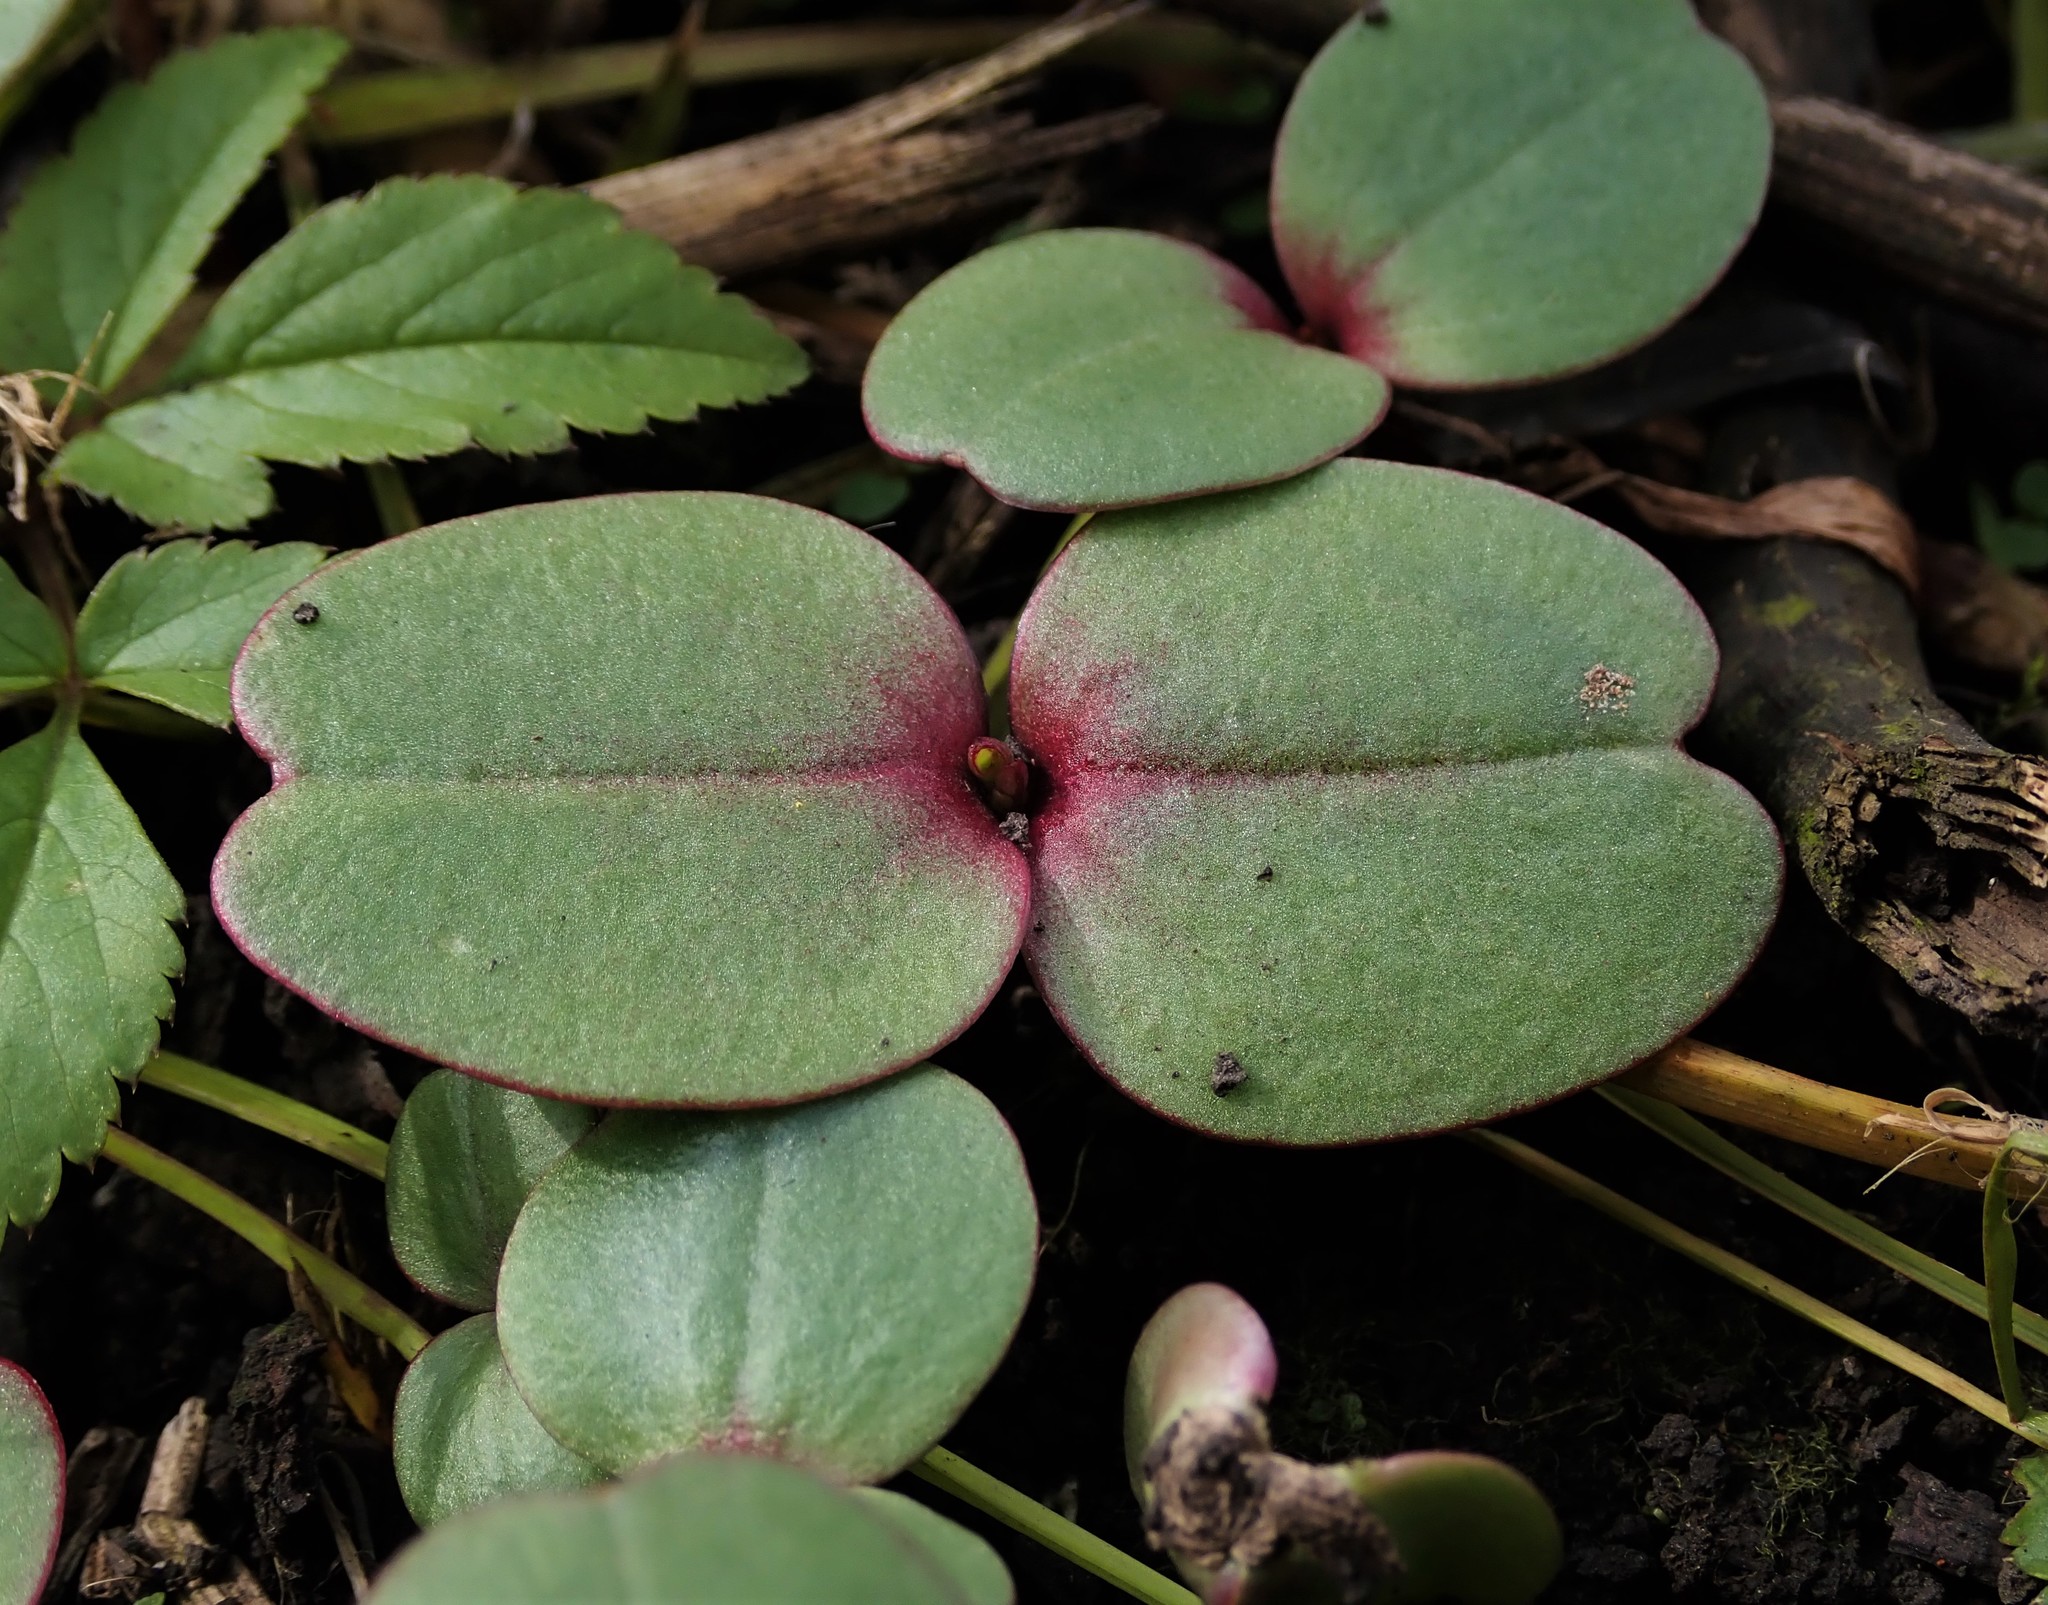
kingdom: Plantae
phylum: Tracheophyta
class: Magnoliopsida
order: Ericales
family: Balsaminaceae
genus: Impatiens
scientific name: Impatiens glandulifera
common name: Himalayan balsam
